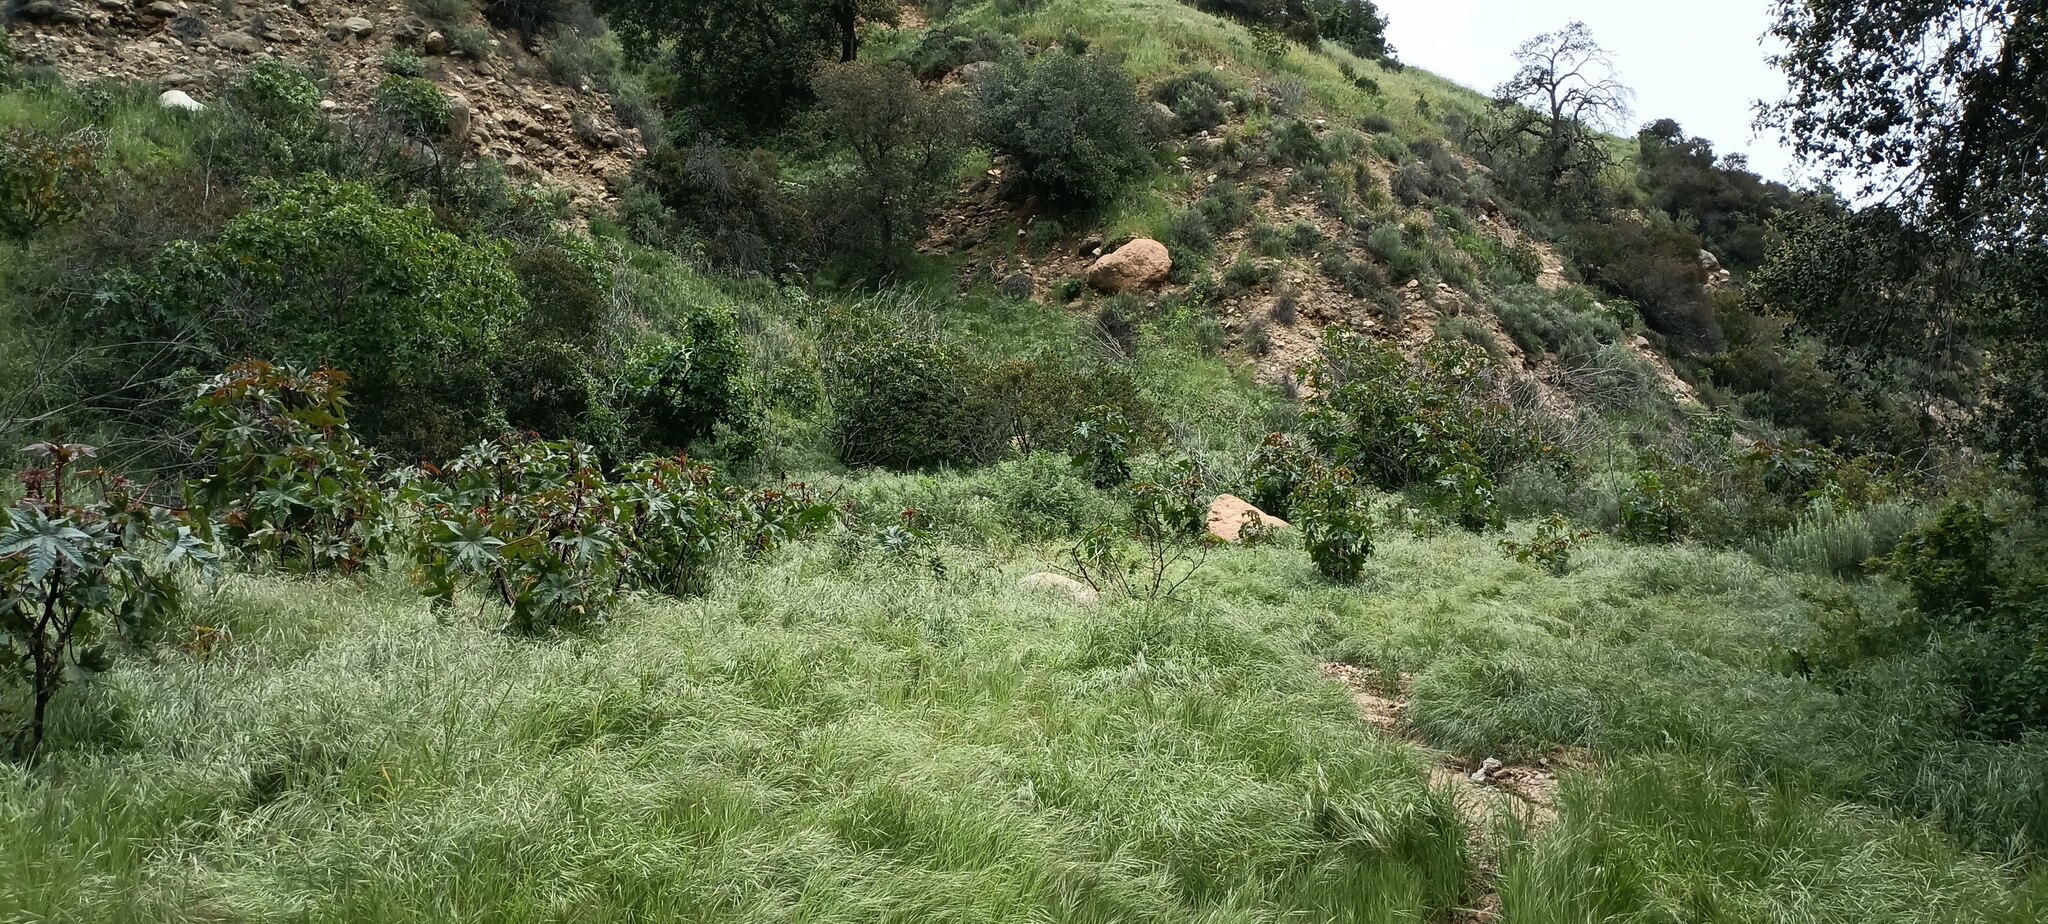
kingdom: Plantae
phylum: Tracheophyta
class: Magnoliopsida
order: Malpighiales
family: Euphorbiaceae
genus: Ricinus
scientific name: Ricinus communis
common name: Castor-oil-plant
